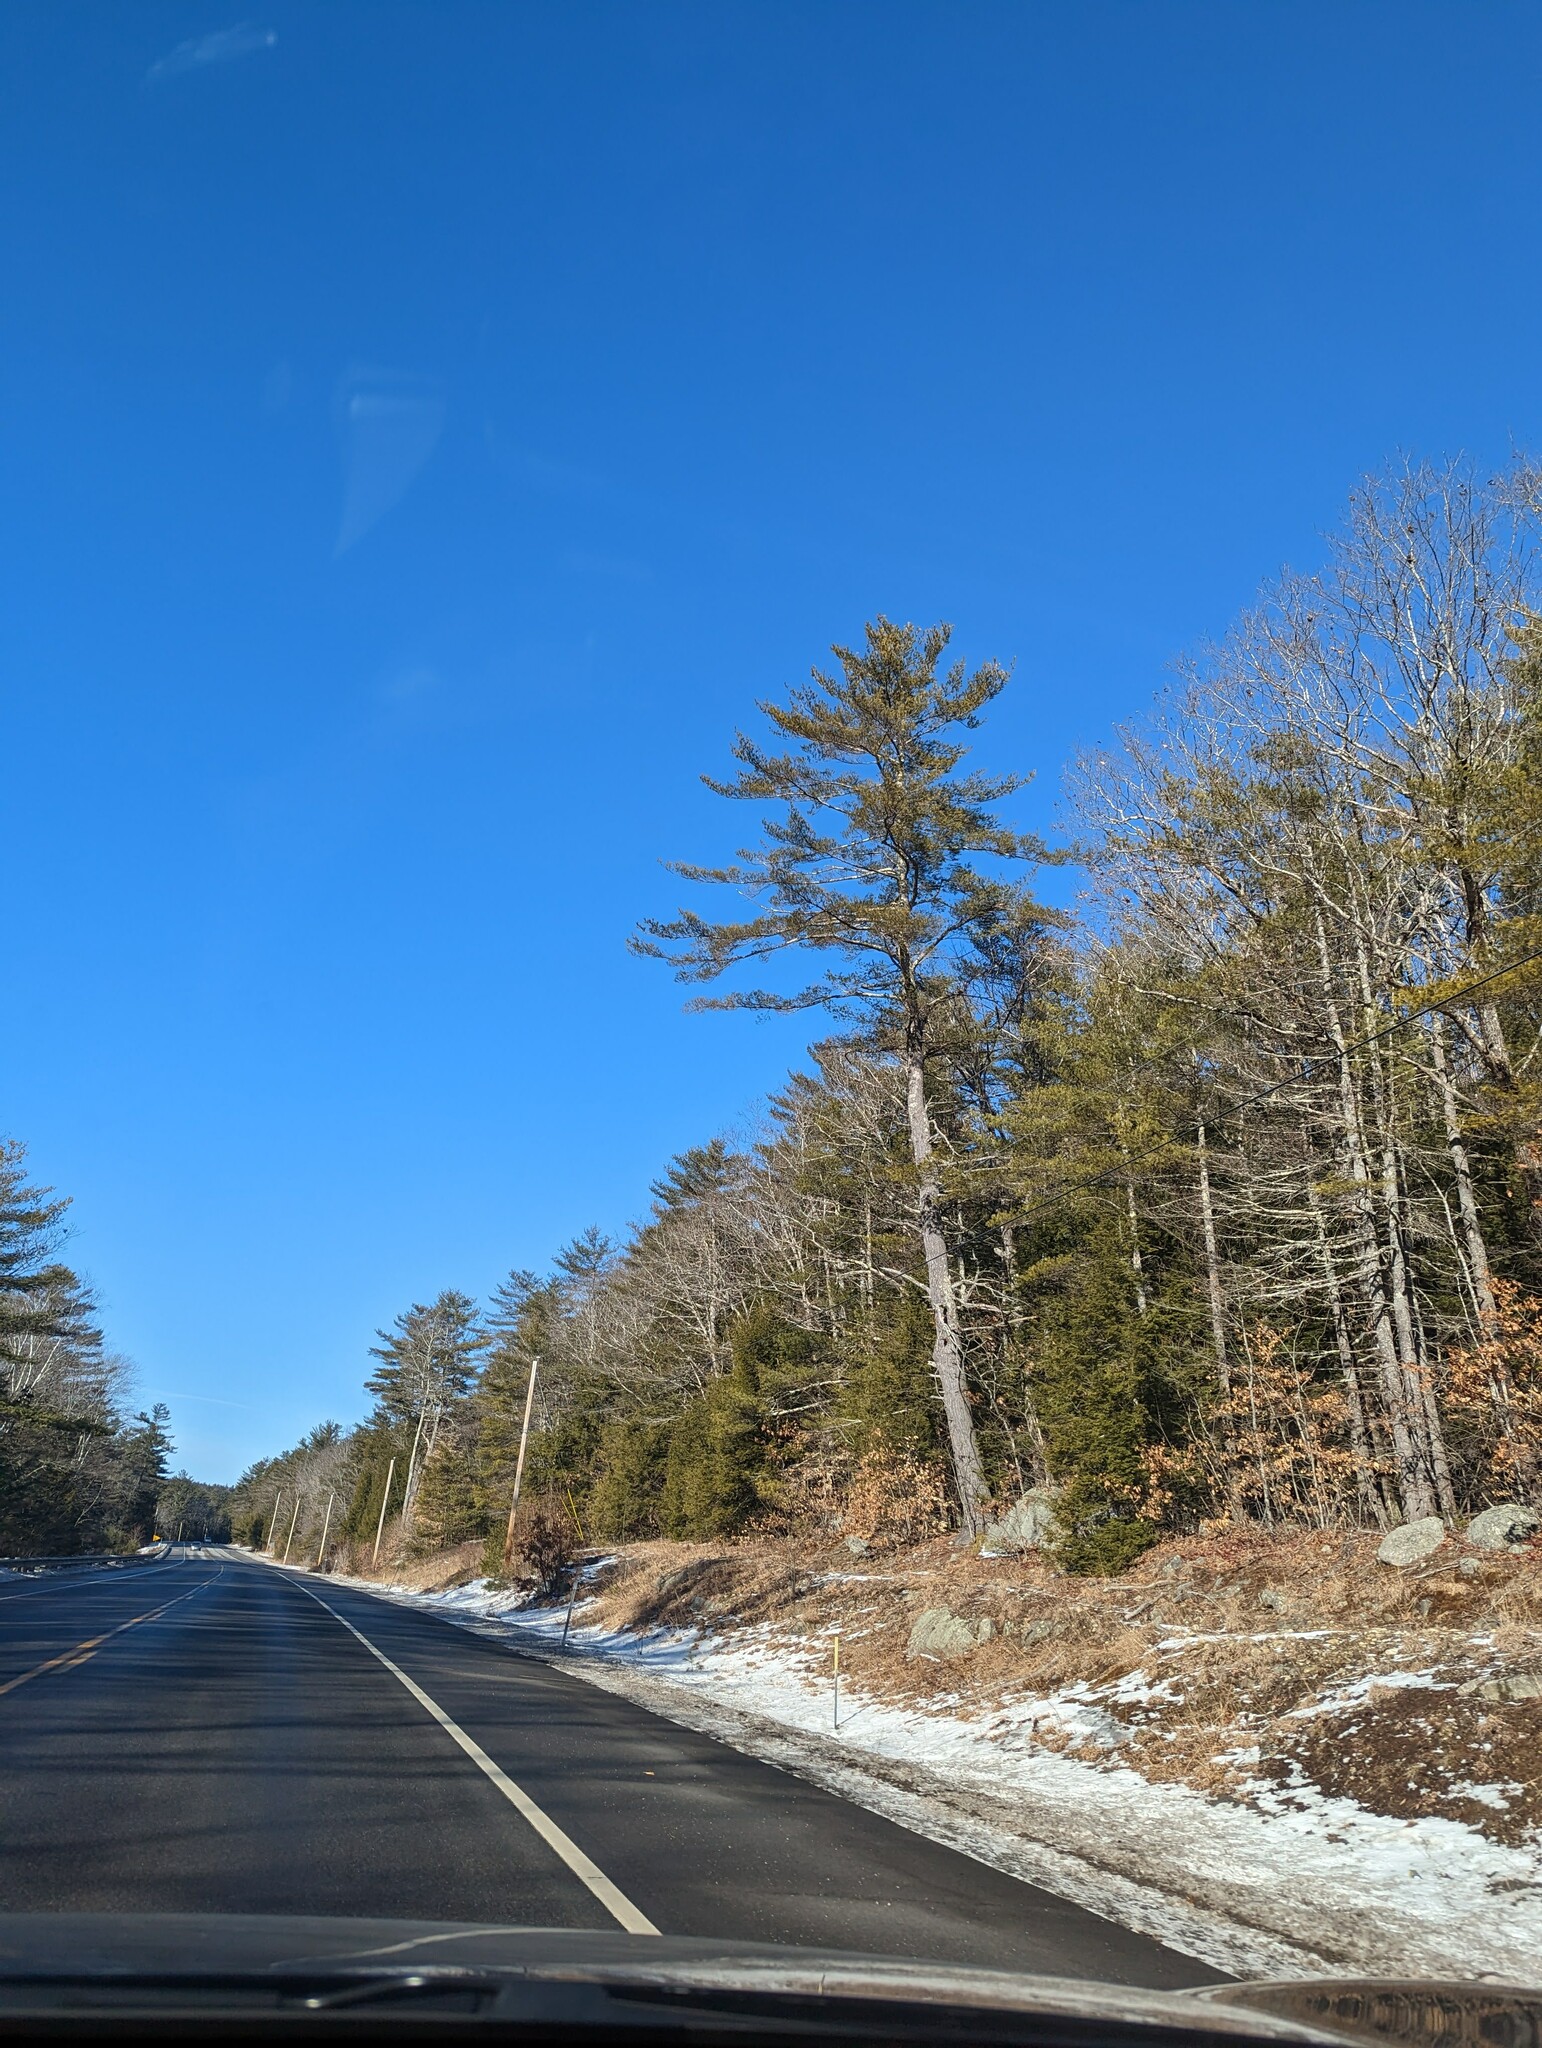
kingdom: Plantae
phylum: Tracheophyta
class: Pinopsida
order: Pinales
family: Pinaceae
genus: Pinus
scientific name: Pinus strobus
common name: Weymouth pine
